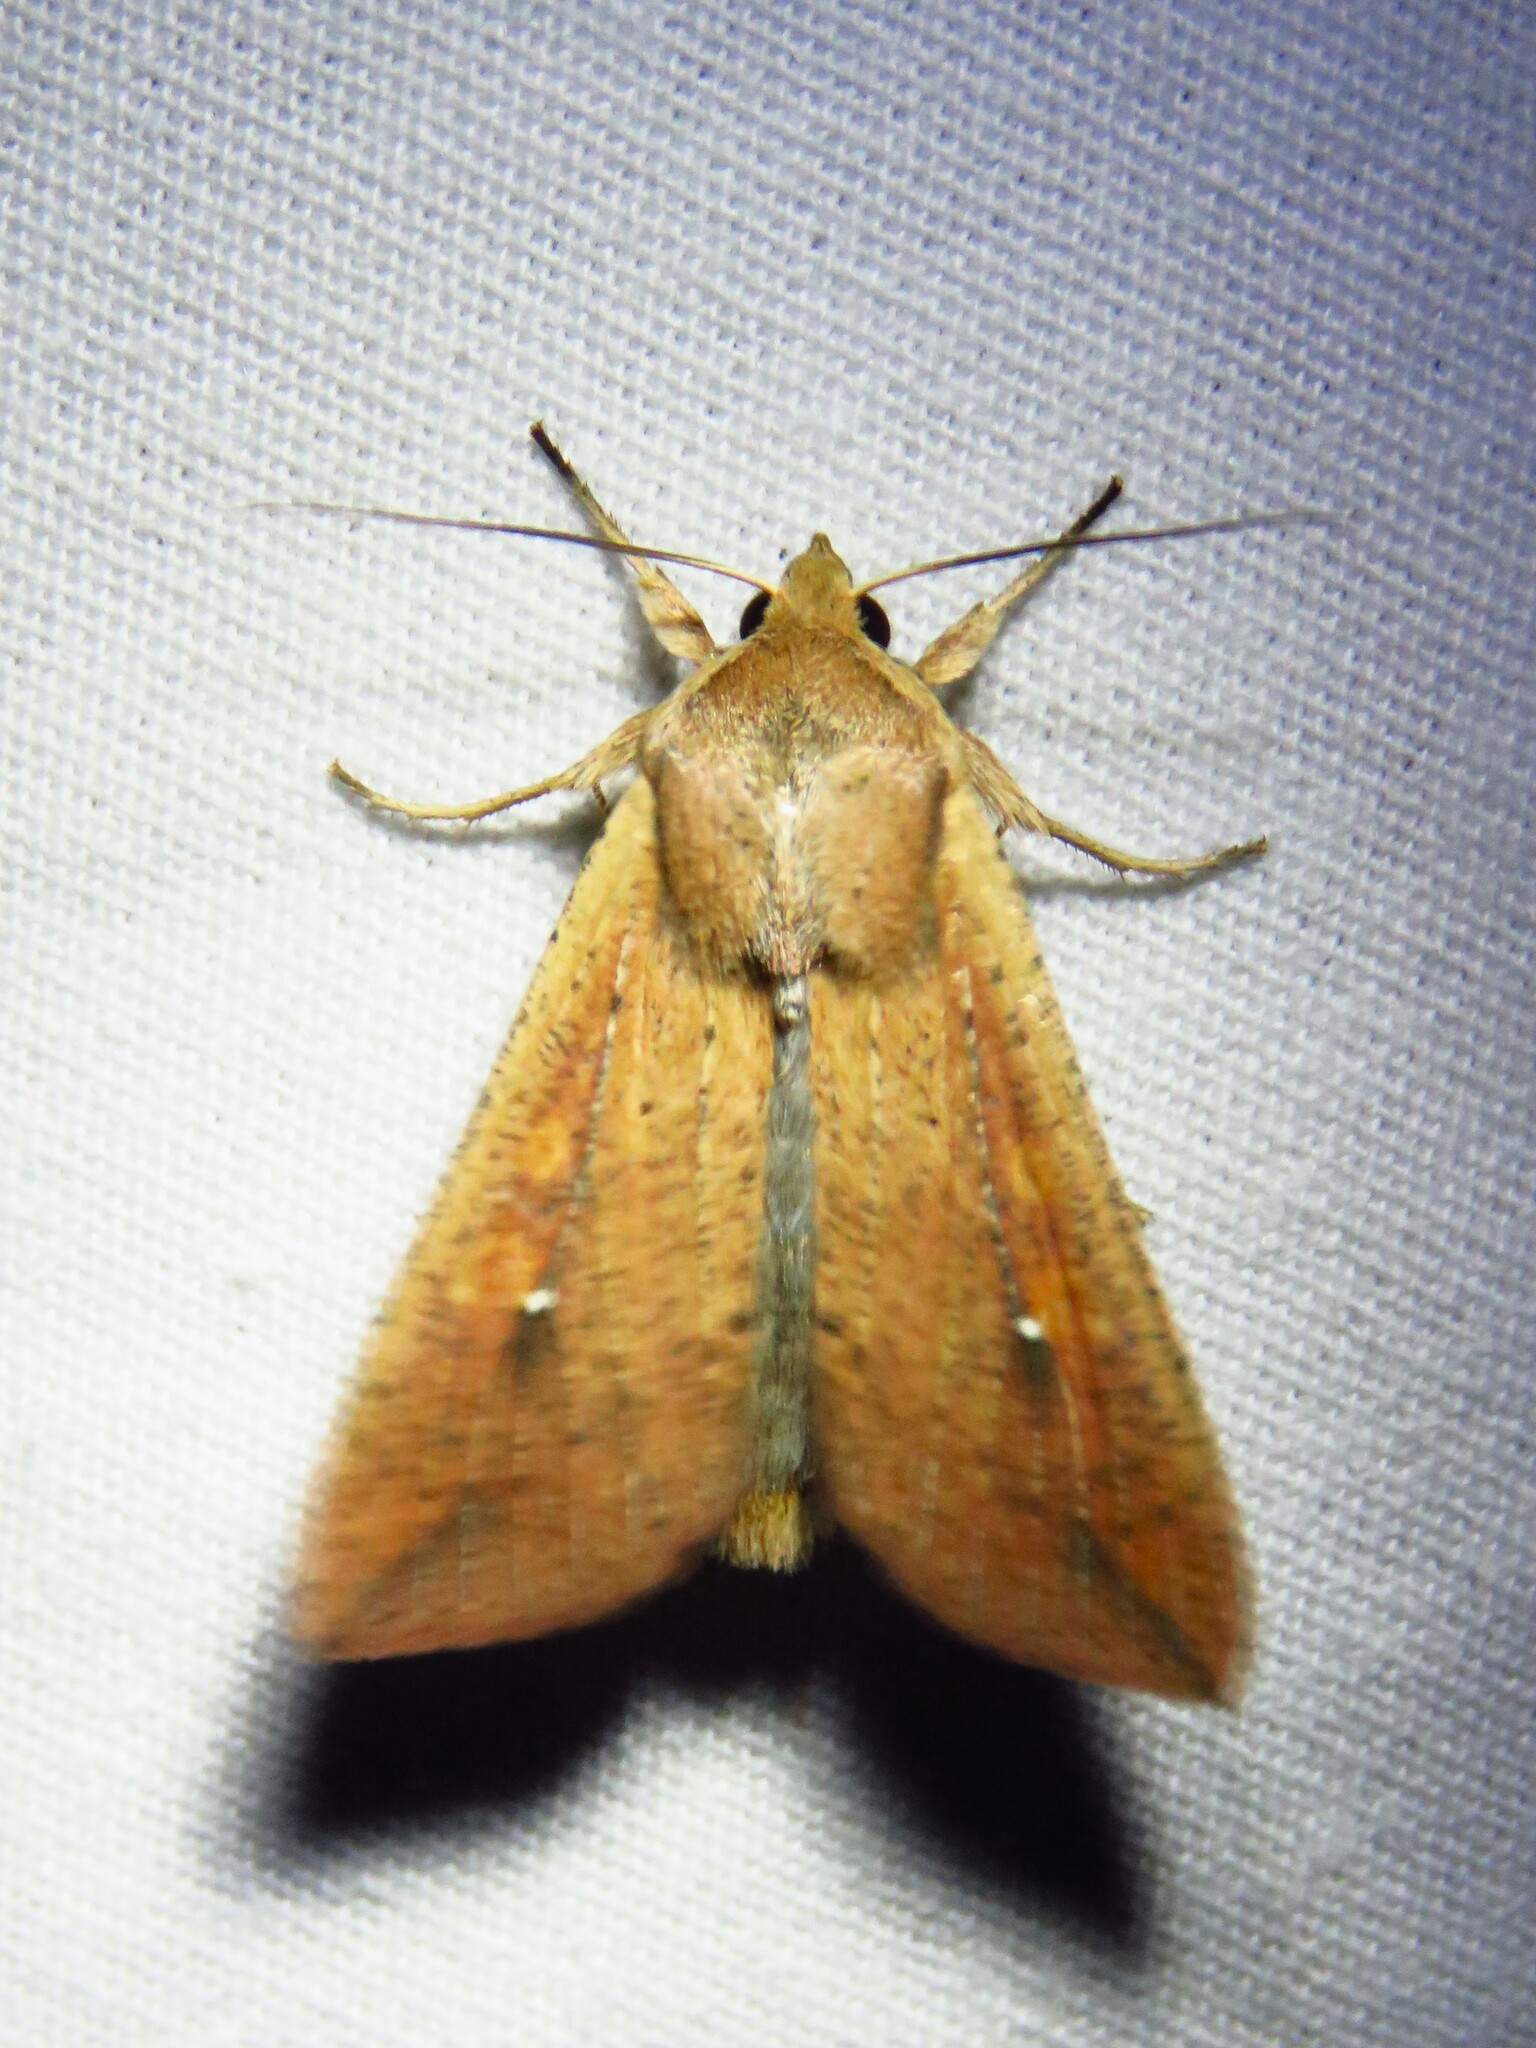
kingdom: Animalia
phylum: Arthropoda
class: Insecta
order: Lepidoptera
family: Noctuidae
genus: Mythimna
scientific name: Mythimna unipuncta
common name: White-speck
